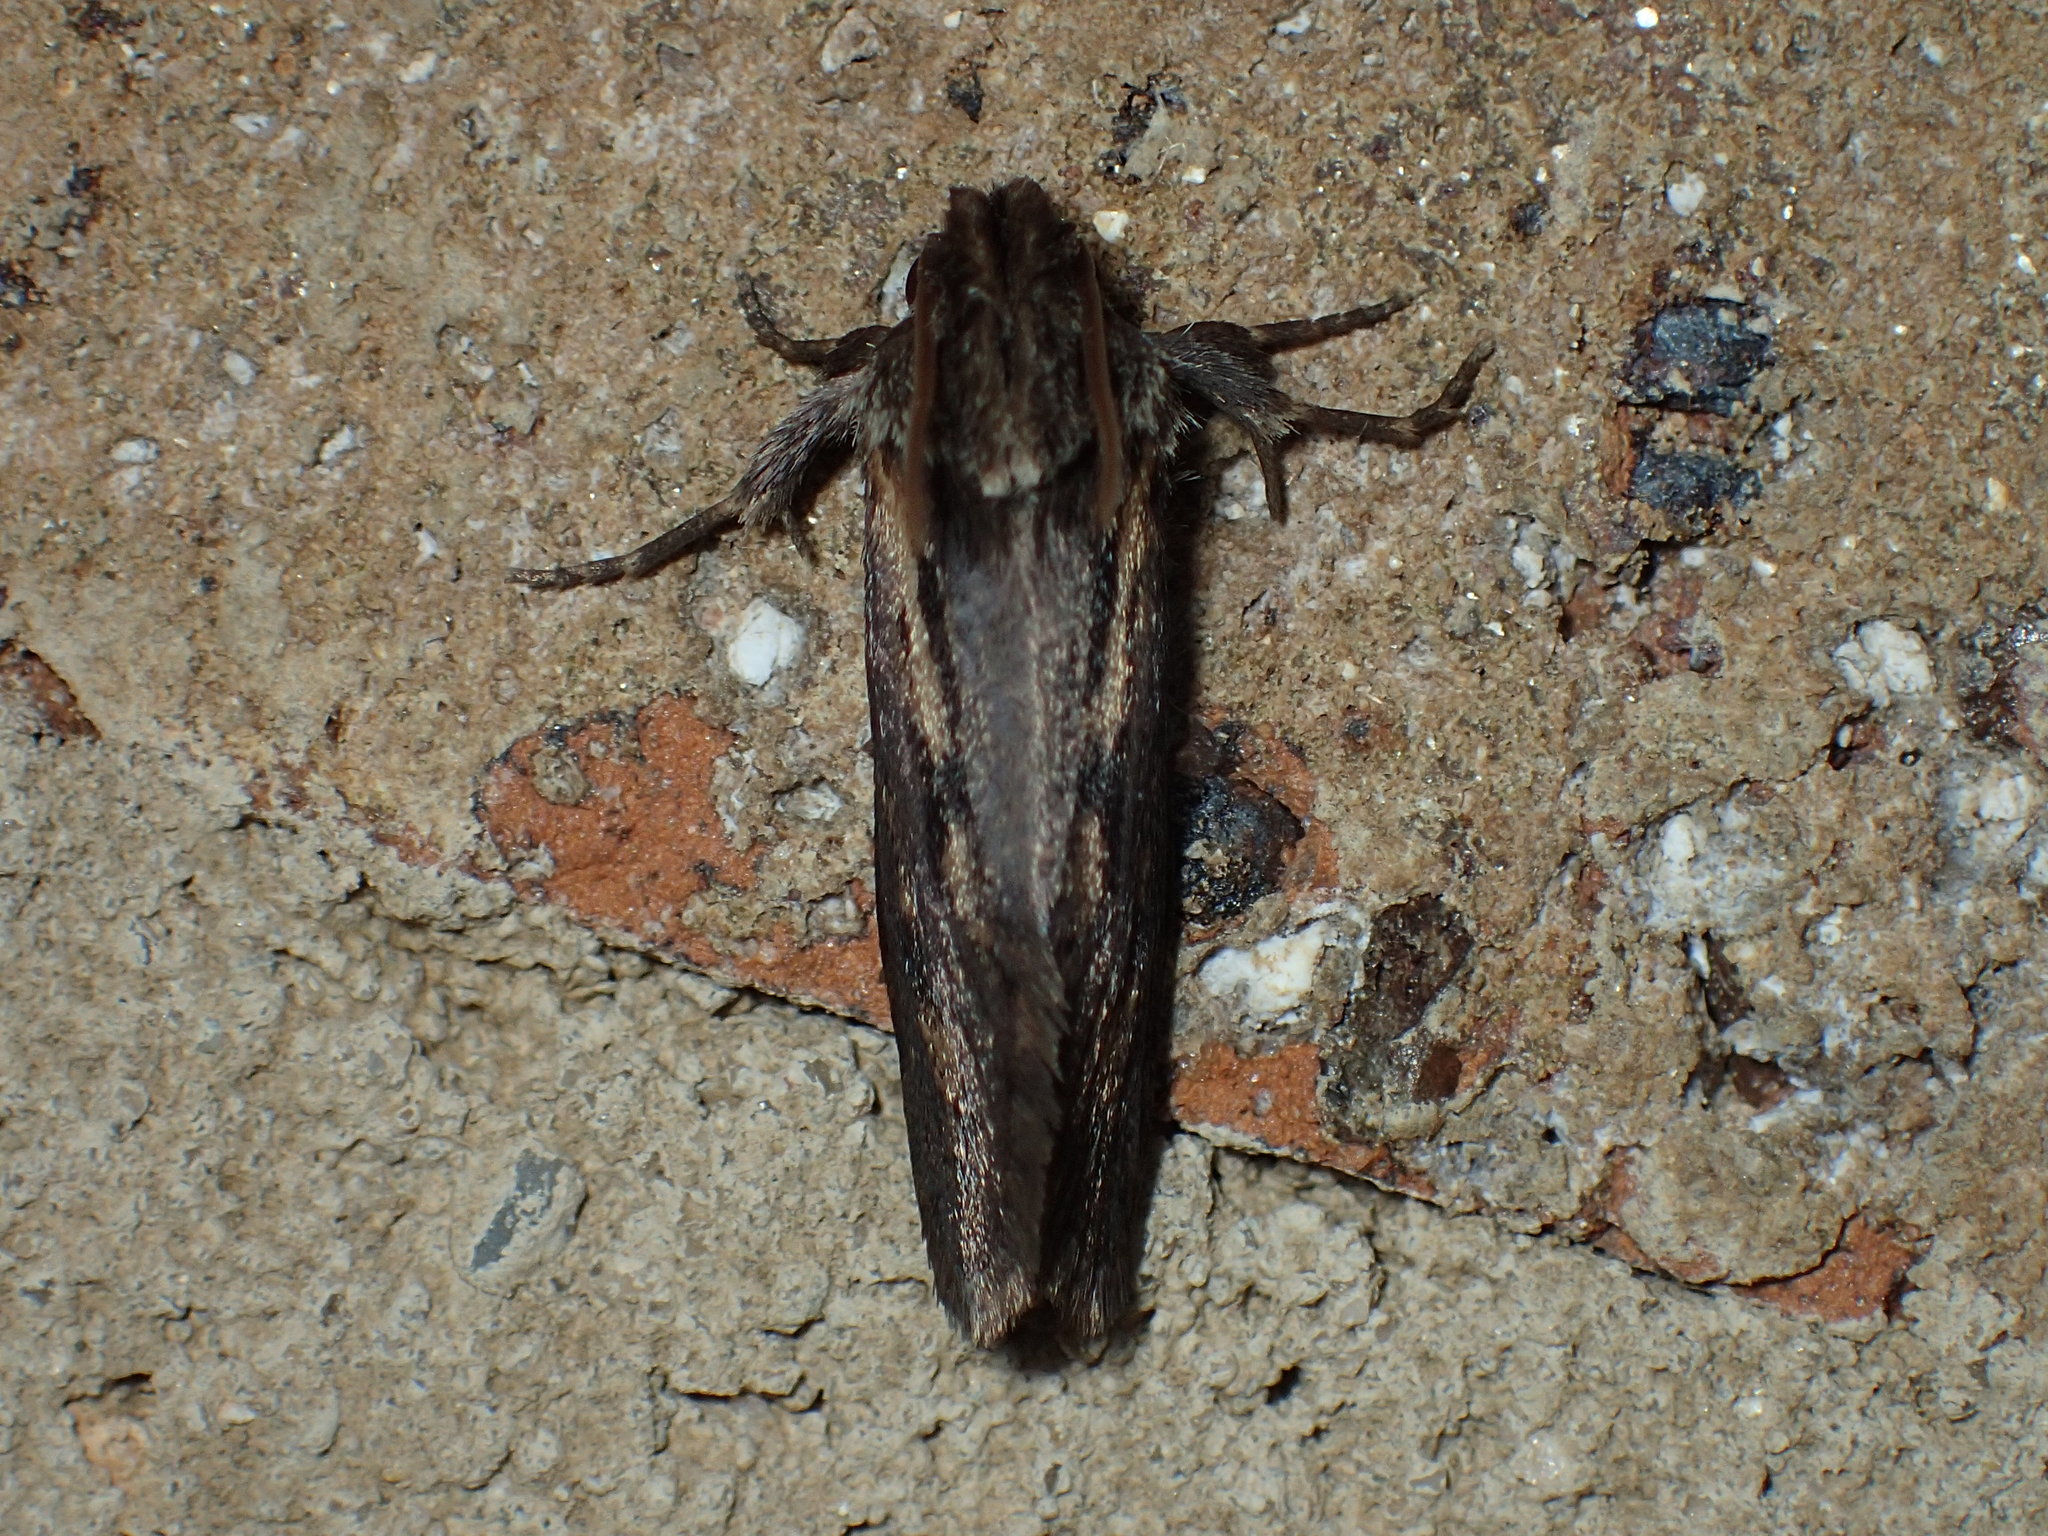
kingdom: Animalia
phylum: Arthropoda
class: Insecta
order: Lepidoptera
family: Tineidae
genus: Acrolophus
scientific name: Acrolophus popeanella
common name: Clemens' grass tubeworm moth
